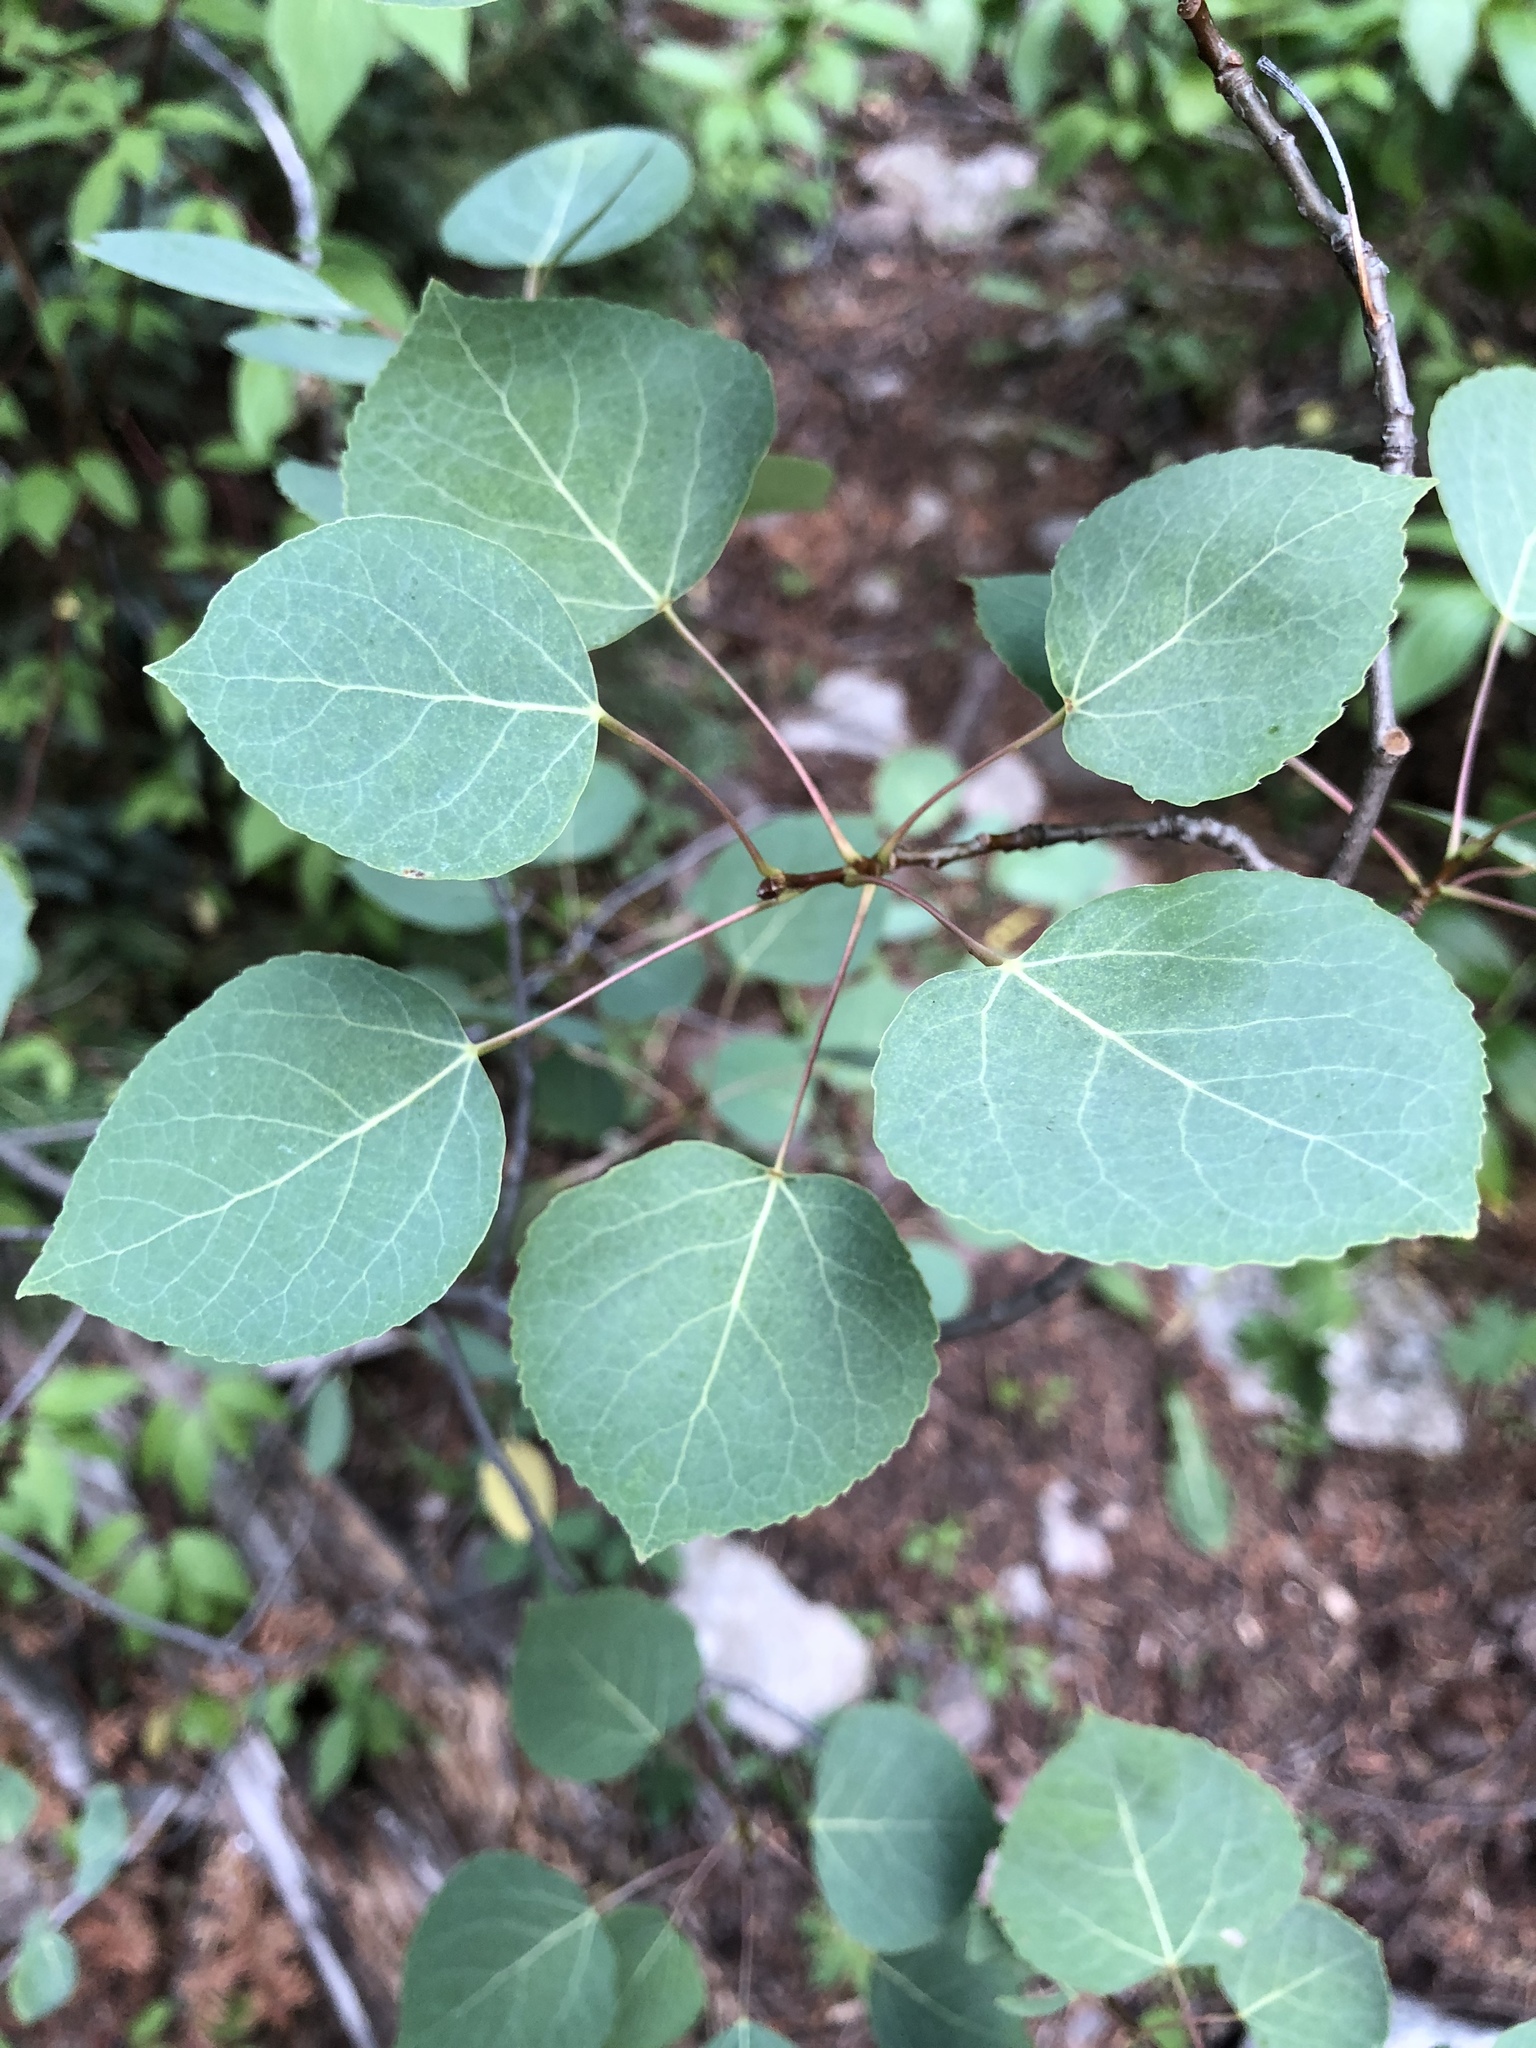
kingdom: Plantae
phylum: Tracheophyta
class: Magnoliopsida
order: Malpighiales
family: Salicaceae
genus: Populus
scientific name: Populus tremuloides
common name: Quaking aspen
